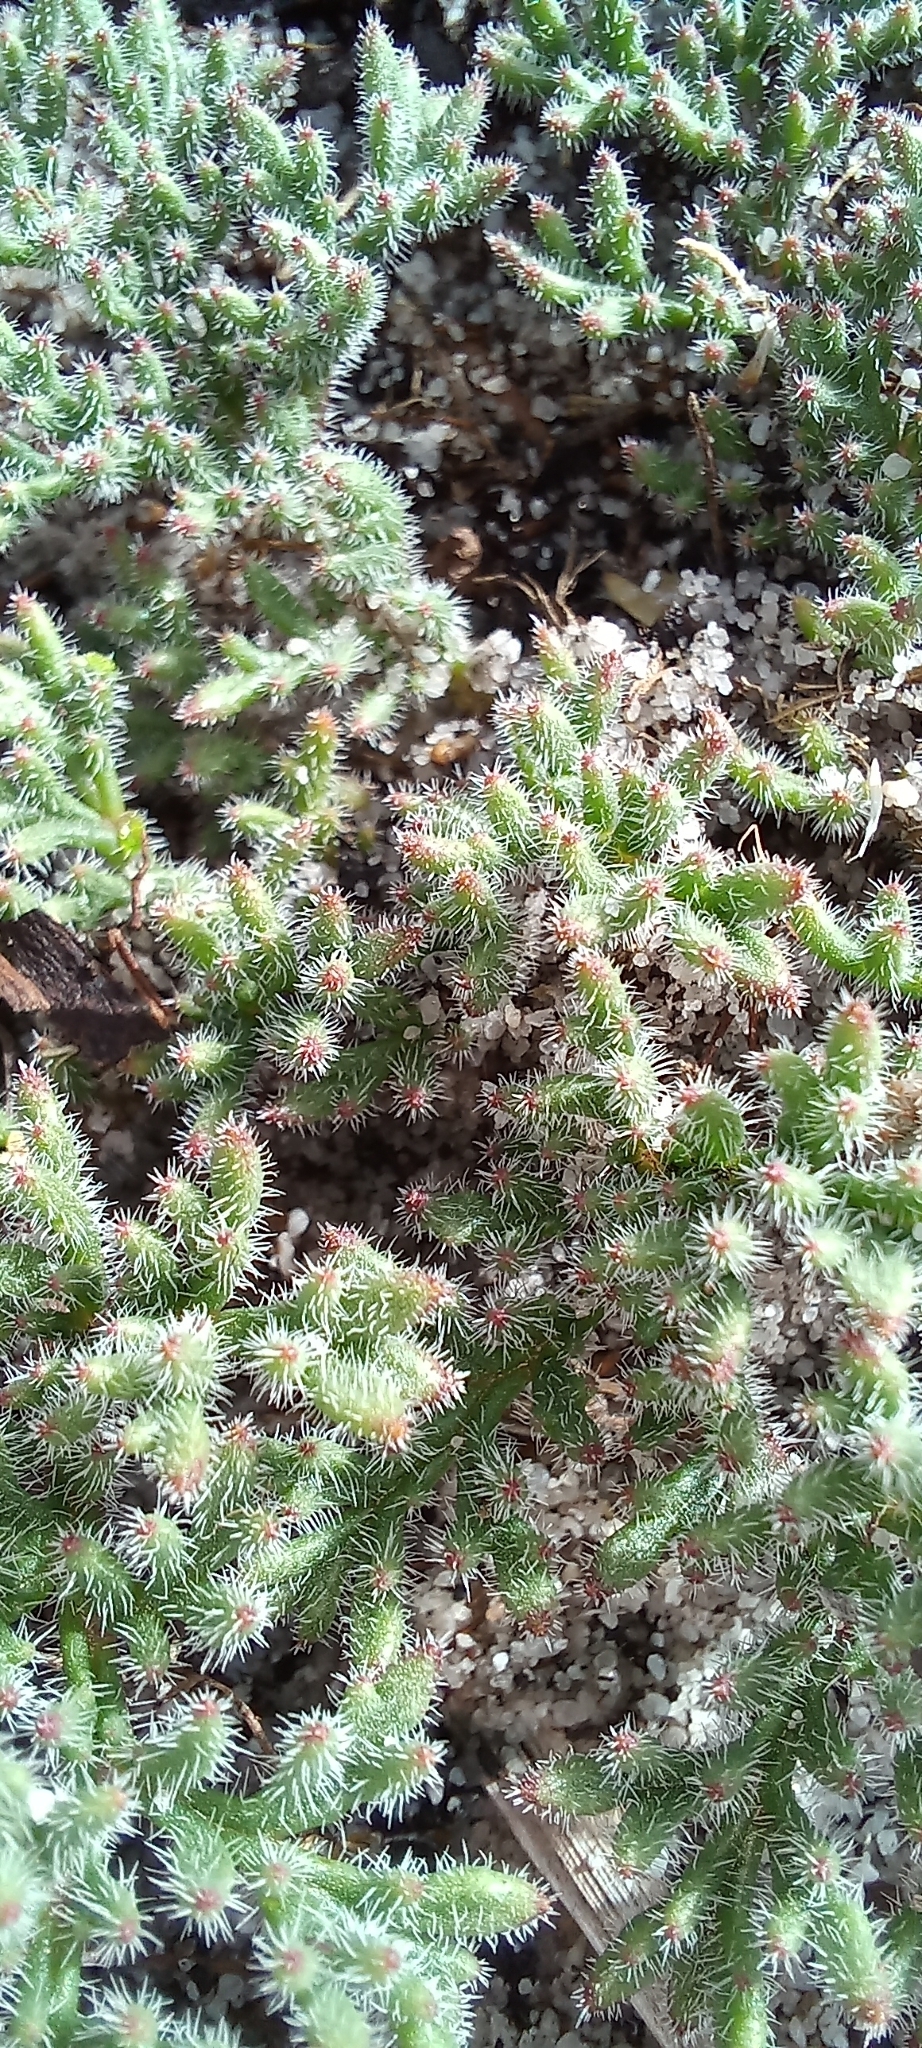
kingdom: Plantae
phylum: Tracheophyta
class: Magnoliopsida
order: Geraniales
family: Geraniaceae
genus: Pelargonium
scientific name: Pelargonium triste
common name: Night-scent pelargonium
